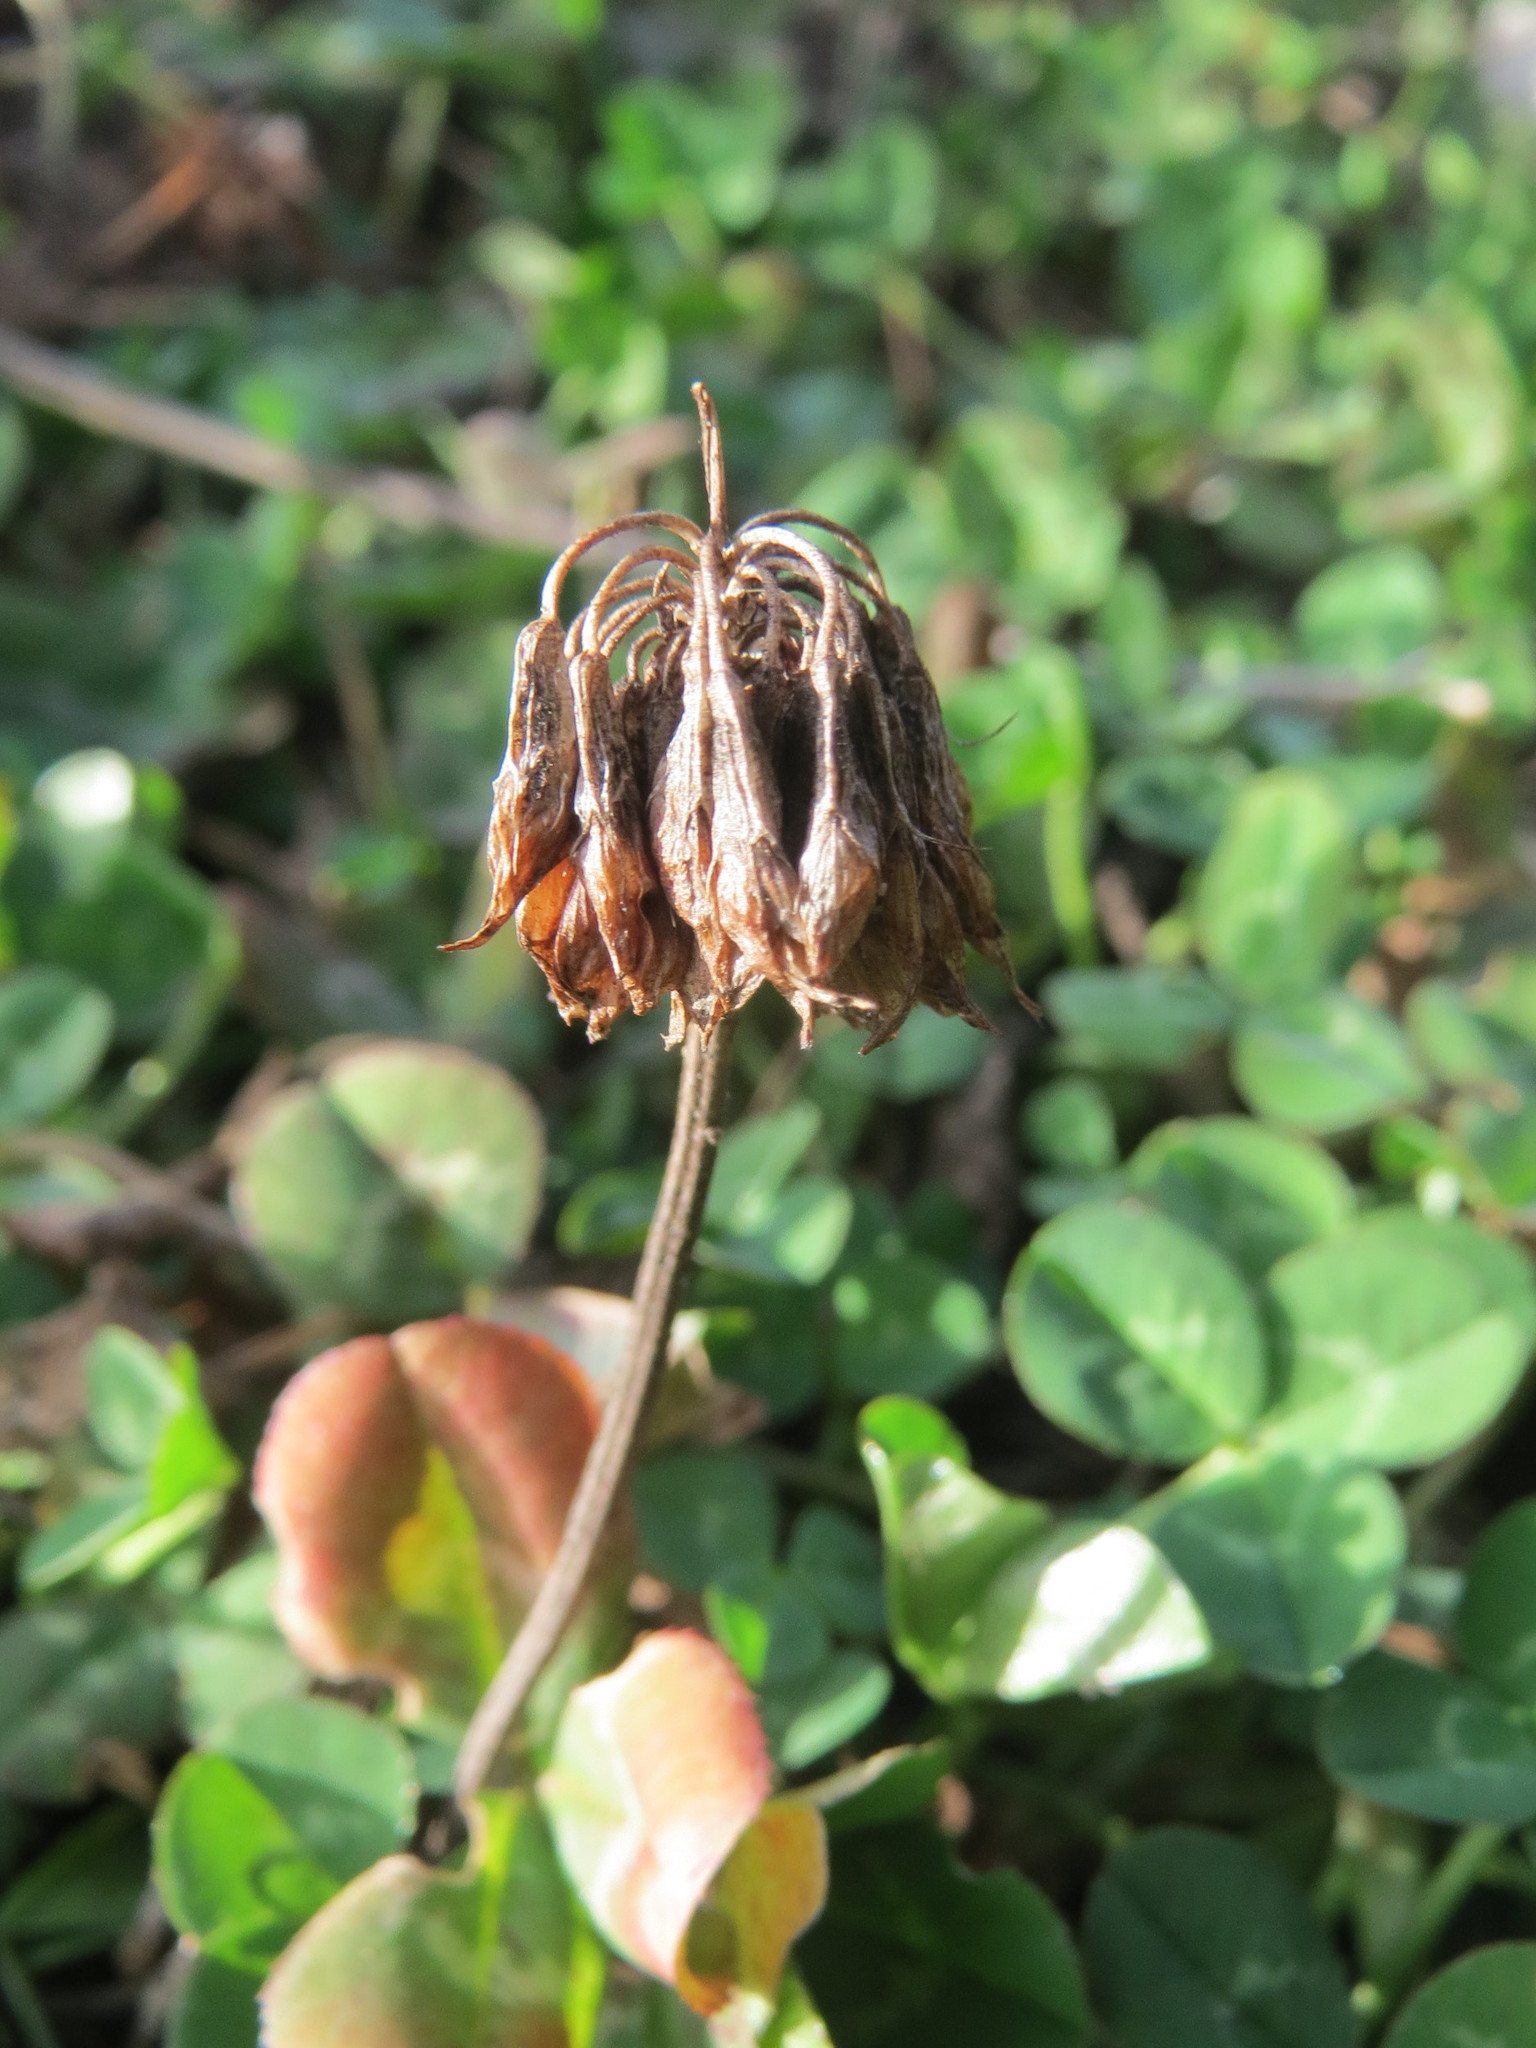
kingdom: Plantae
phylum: Tracheophyta
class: Magnoliopsida
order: Fabales
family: Fabaceae
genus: Trifolium
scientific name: Trifolium repens
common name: White clover
